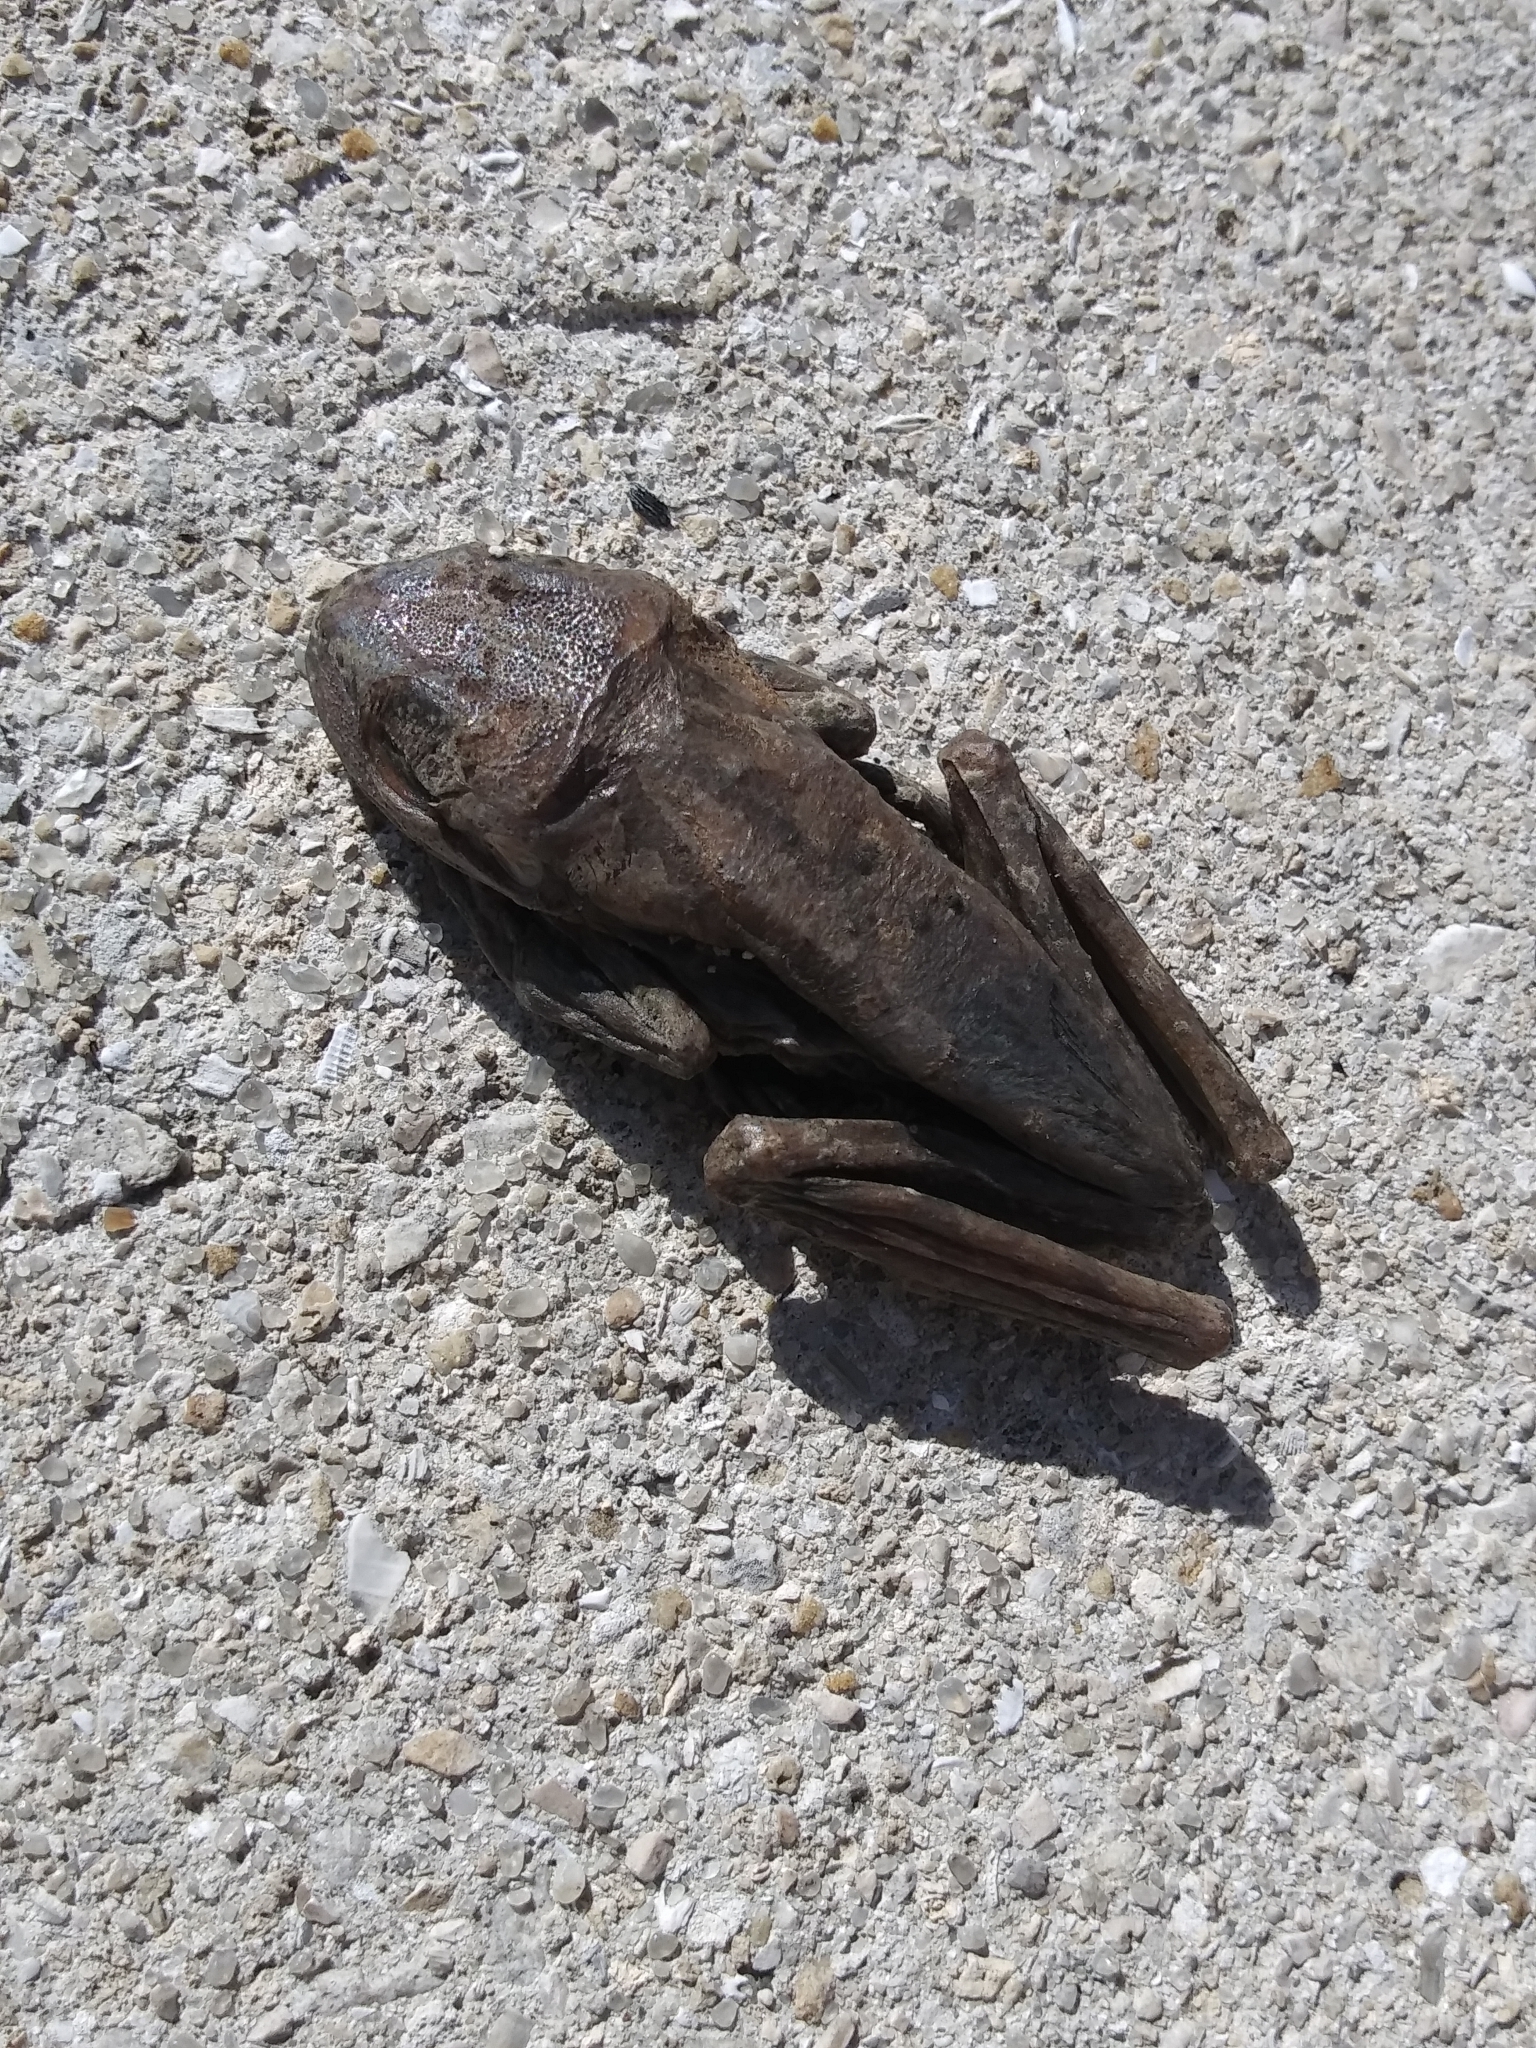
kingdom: Animalia
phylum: Chordata
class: Amphibia
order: Anura
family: Hylidae
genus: Osteopilus
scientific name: Osteopilus septentrionalis
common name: Cuban treefrog
